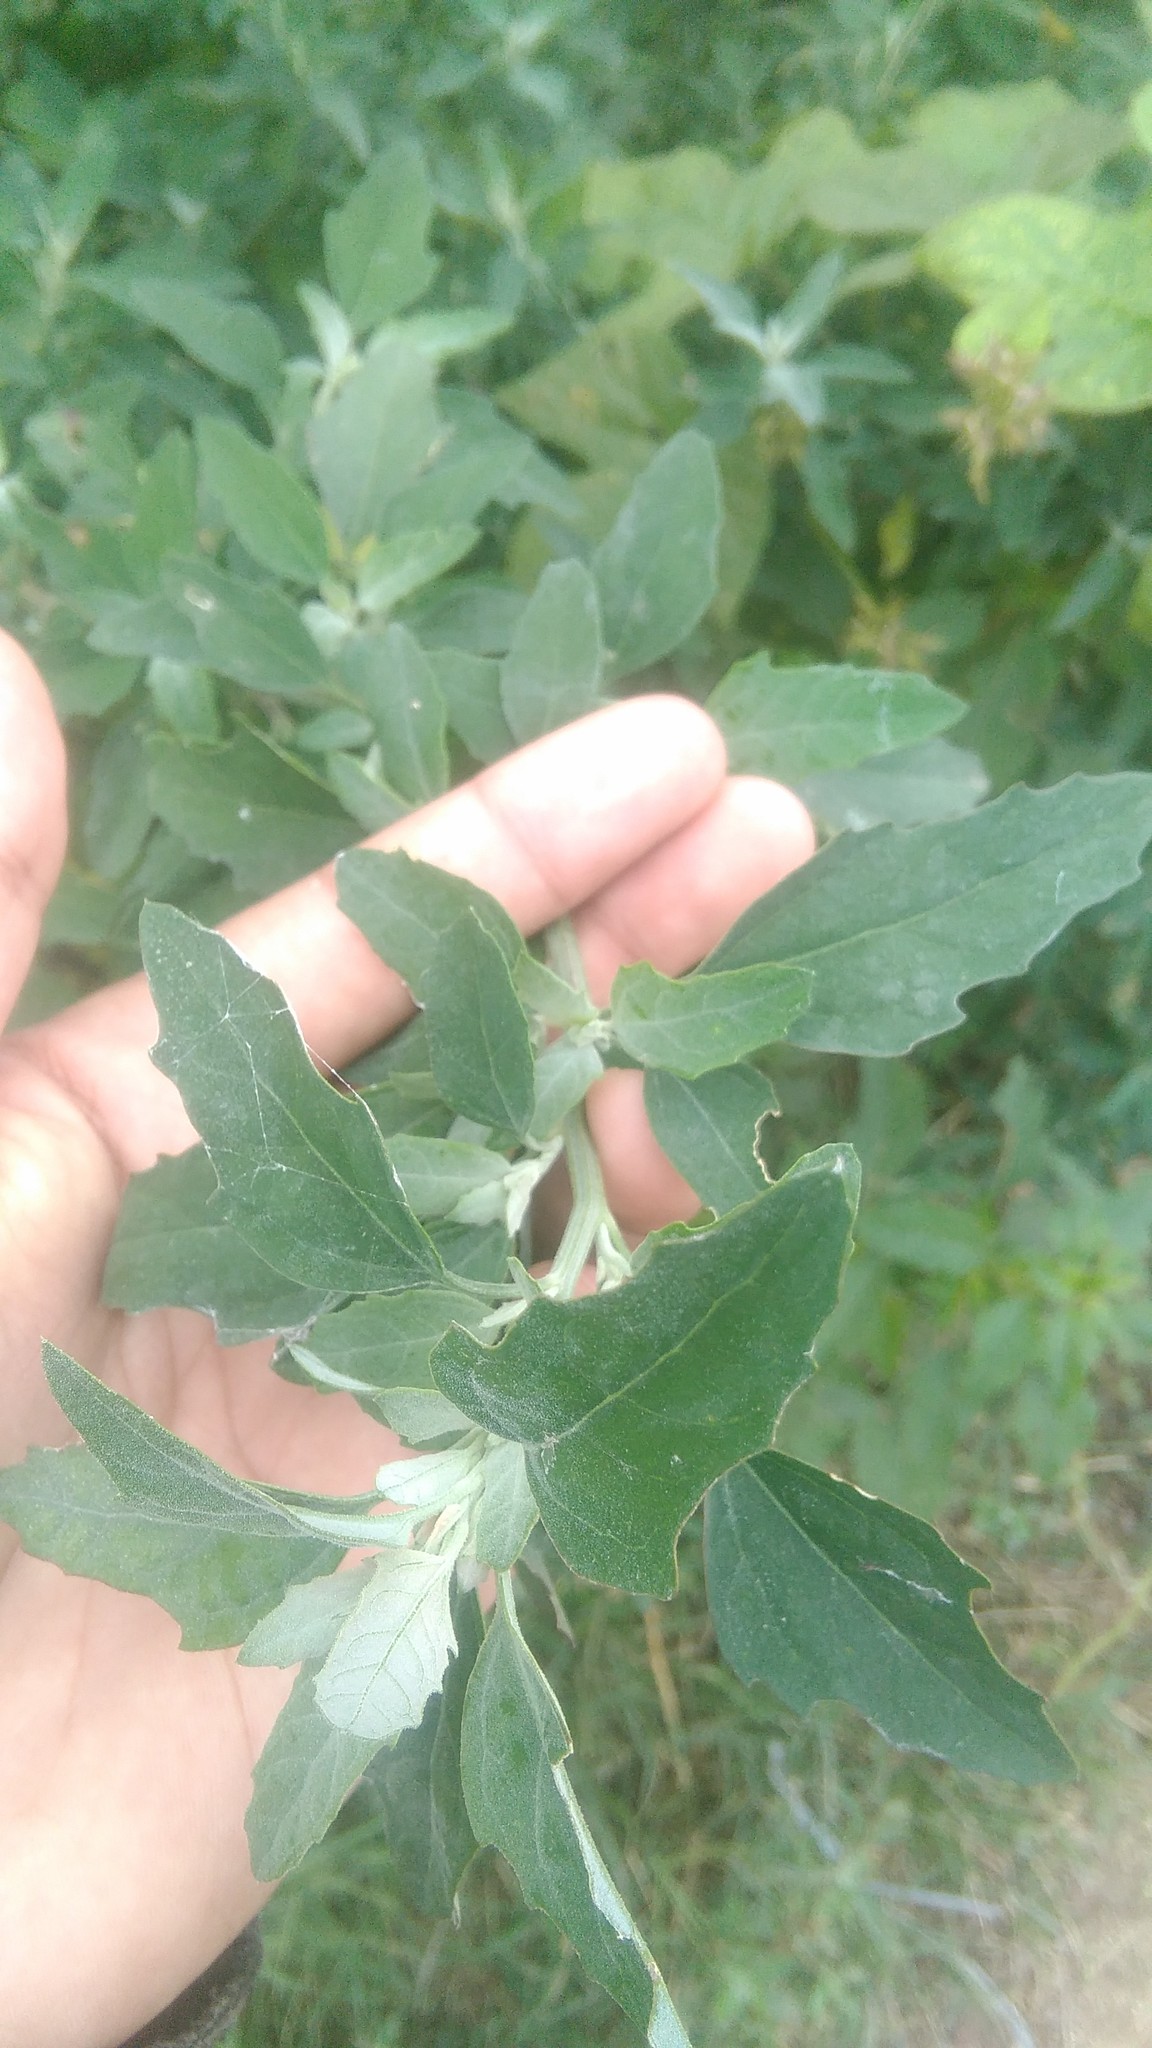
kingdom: Plantae
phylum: Tracheophyta
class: Magnoliopsida
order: Caryophyllales
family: Amaranthaceae
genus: Chenopodium
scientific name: Chenopodium album
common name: Fat-hen
